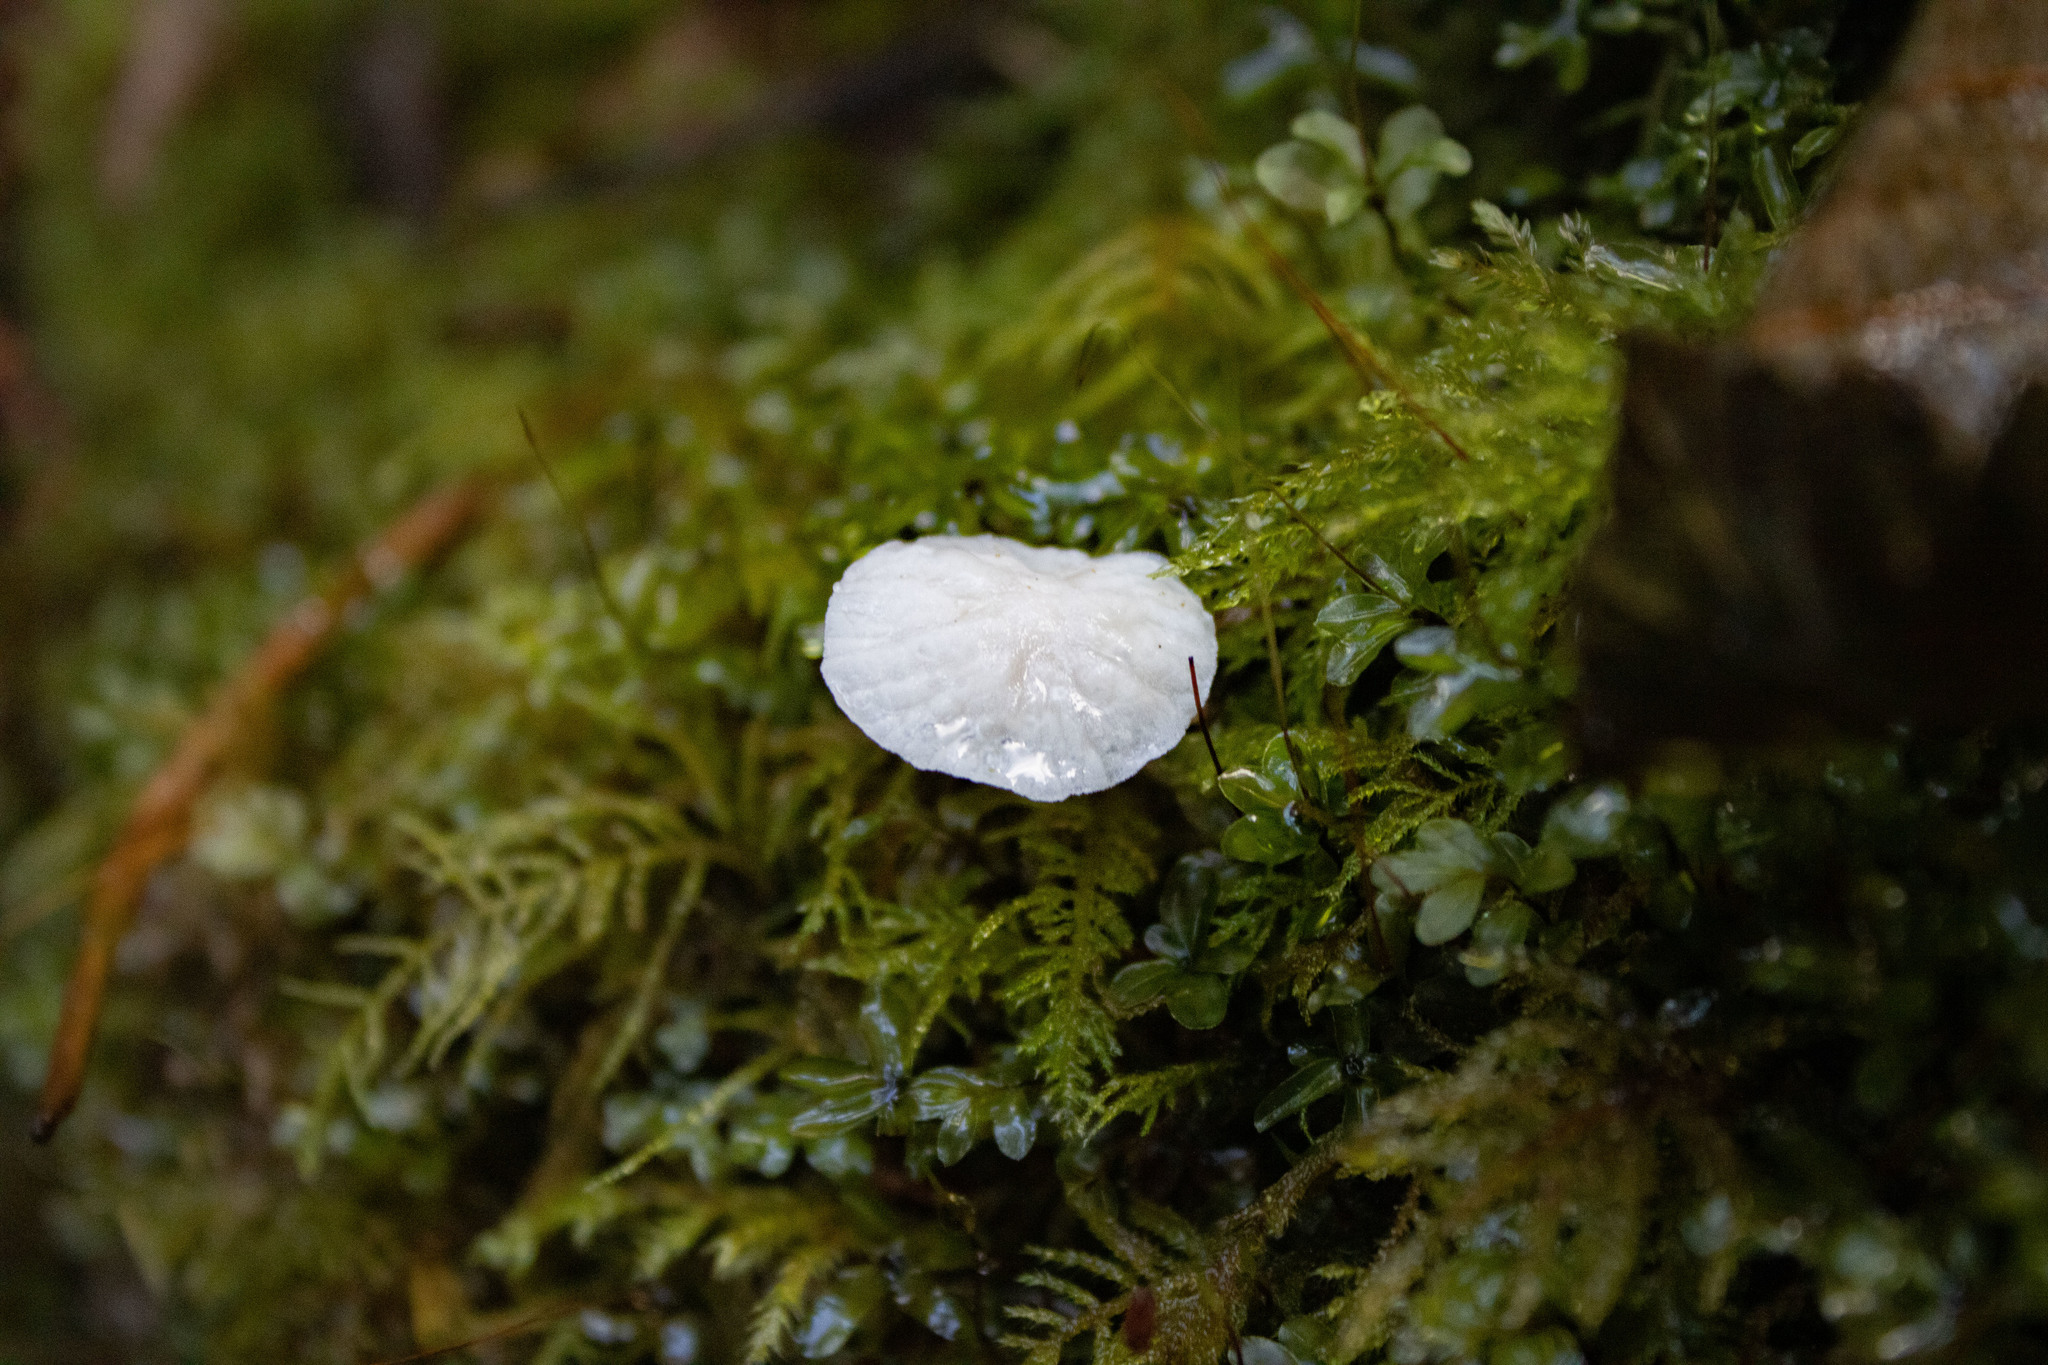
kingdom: Fungi
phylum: Basidiomycota
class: Agaricomycetes
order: Agaricales
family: Omphalotaceae
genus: Marasmiellus
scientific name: Marasmiellus candidus
